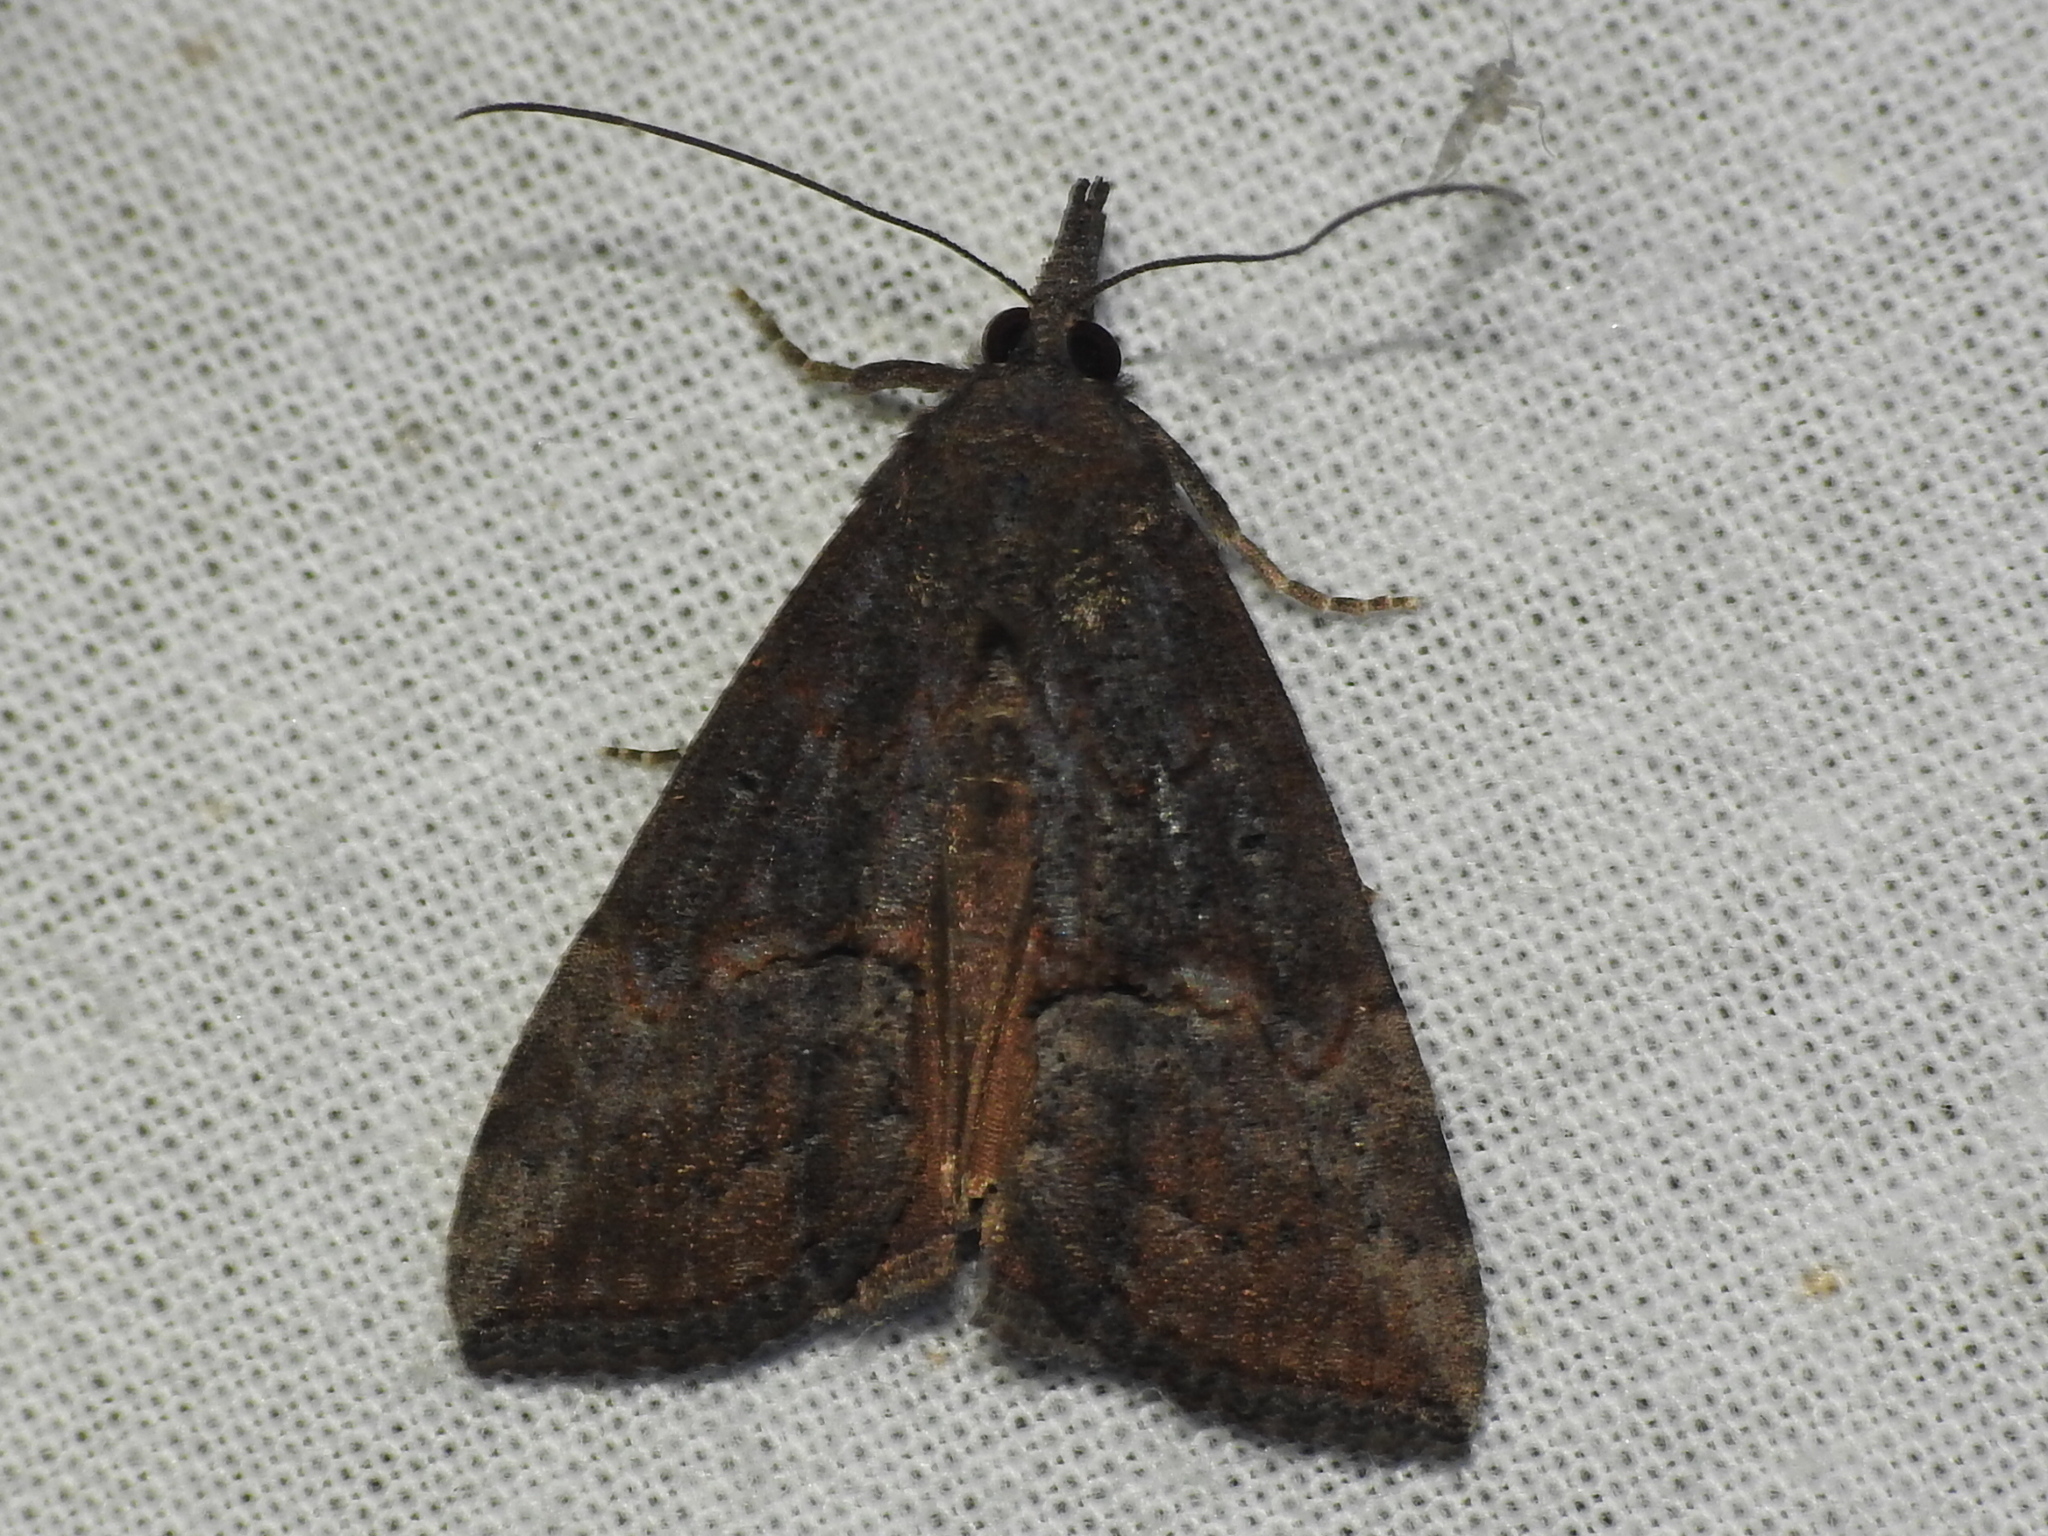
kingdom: Animalia
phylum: Arthropoda
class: Insecta
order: Lepidoptera
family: Erebidae
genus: Hypena
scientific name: Hypena scabra
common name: Green cloverworm
